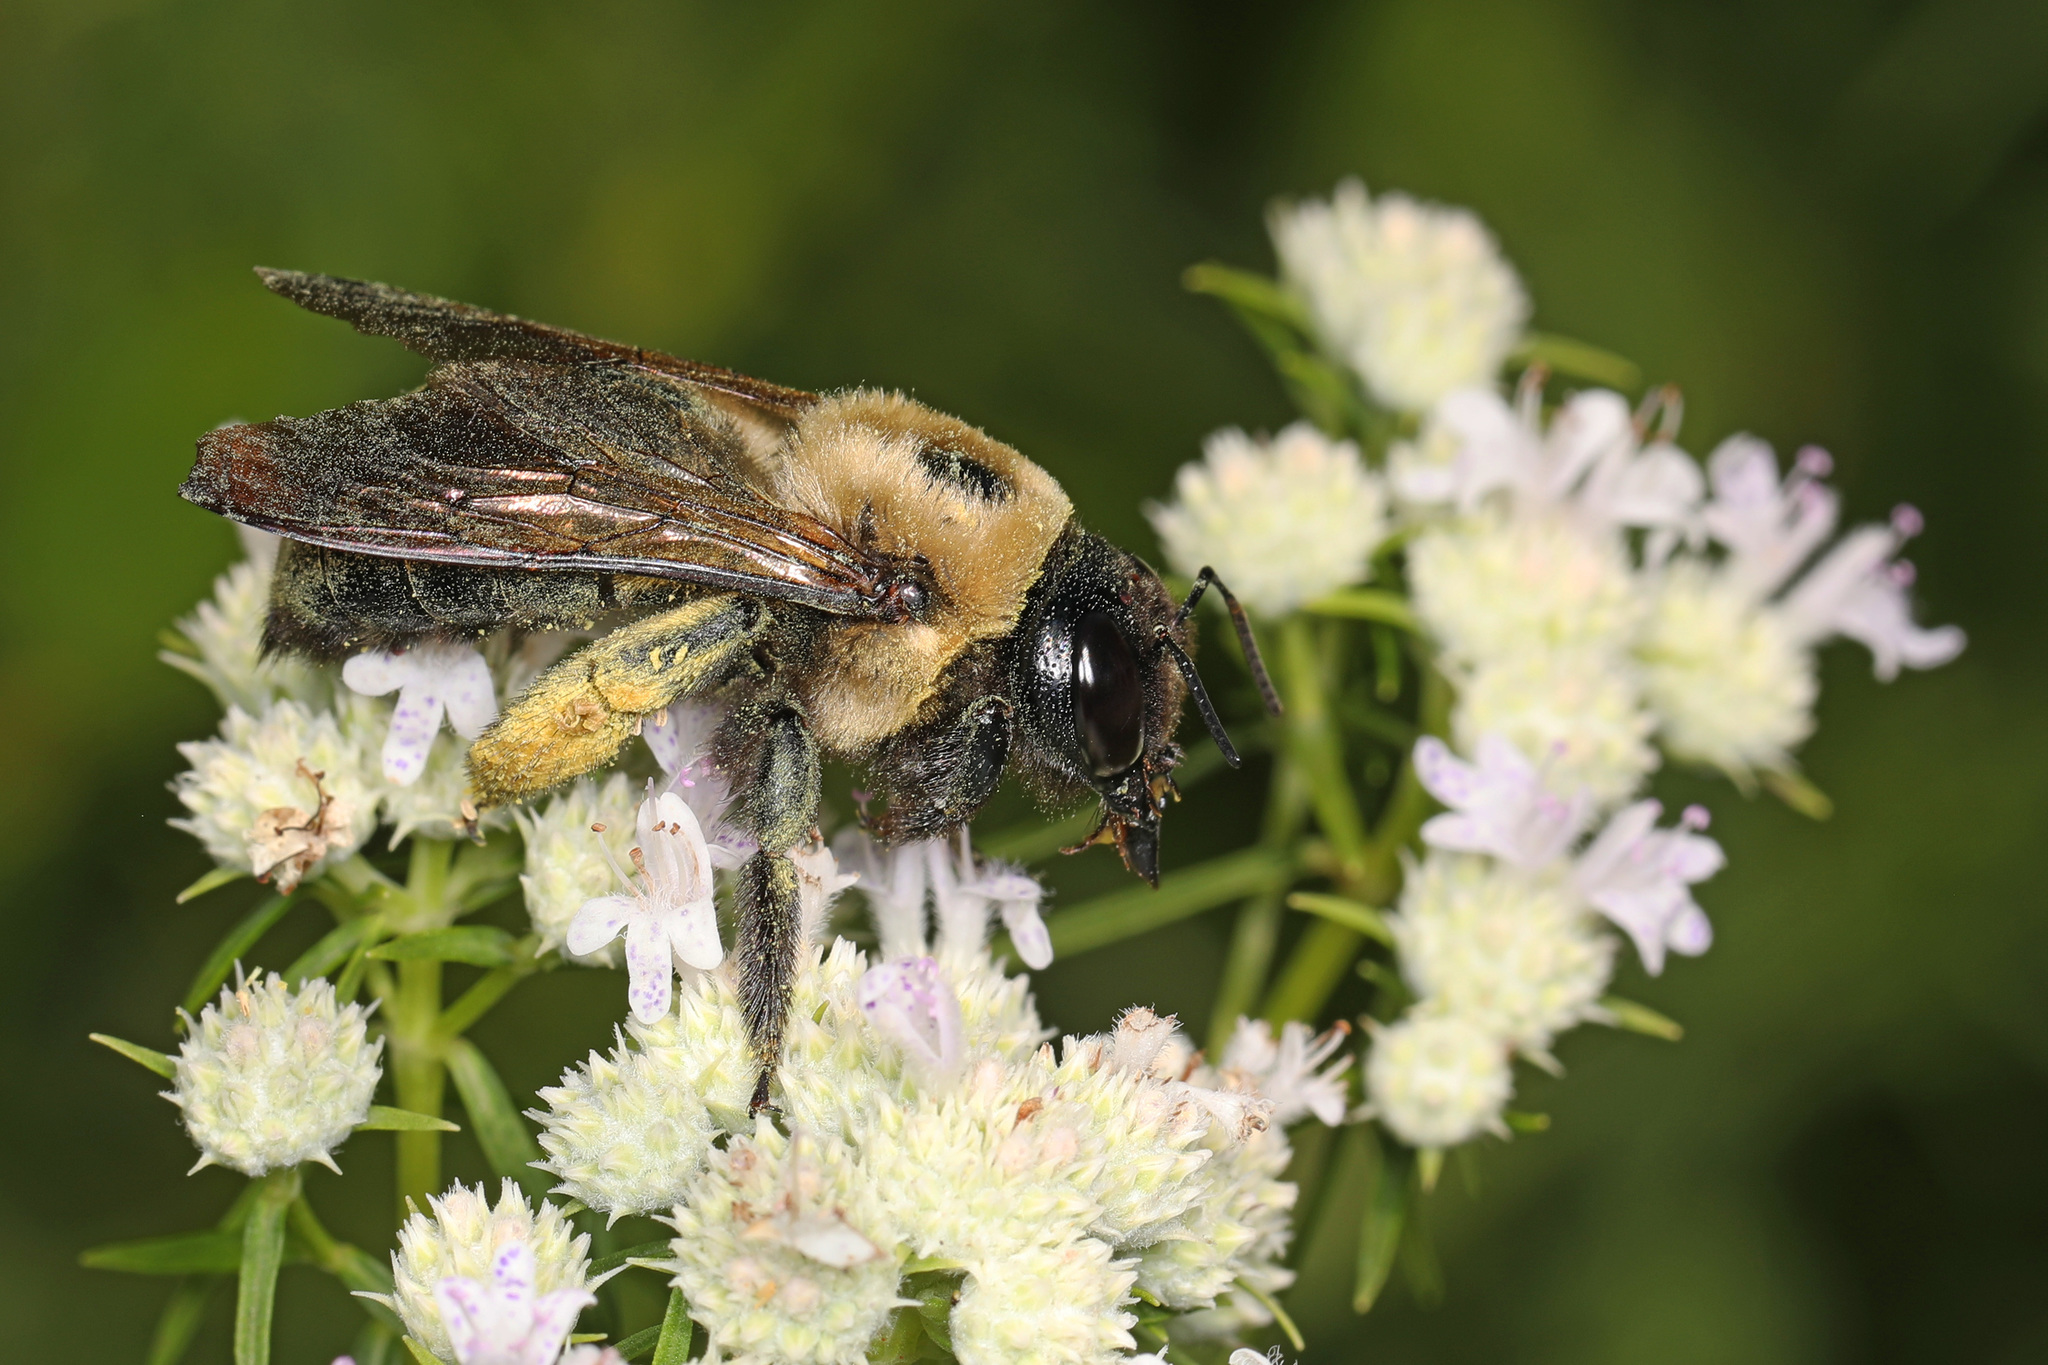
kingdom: Animalia
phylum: Arthropoda
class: Insecta
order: Hymenoptera
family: Apidae
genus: Xylocopa
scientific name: Xylocopa virginica
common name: Carpenter bee
